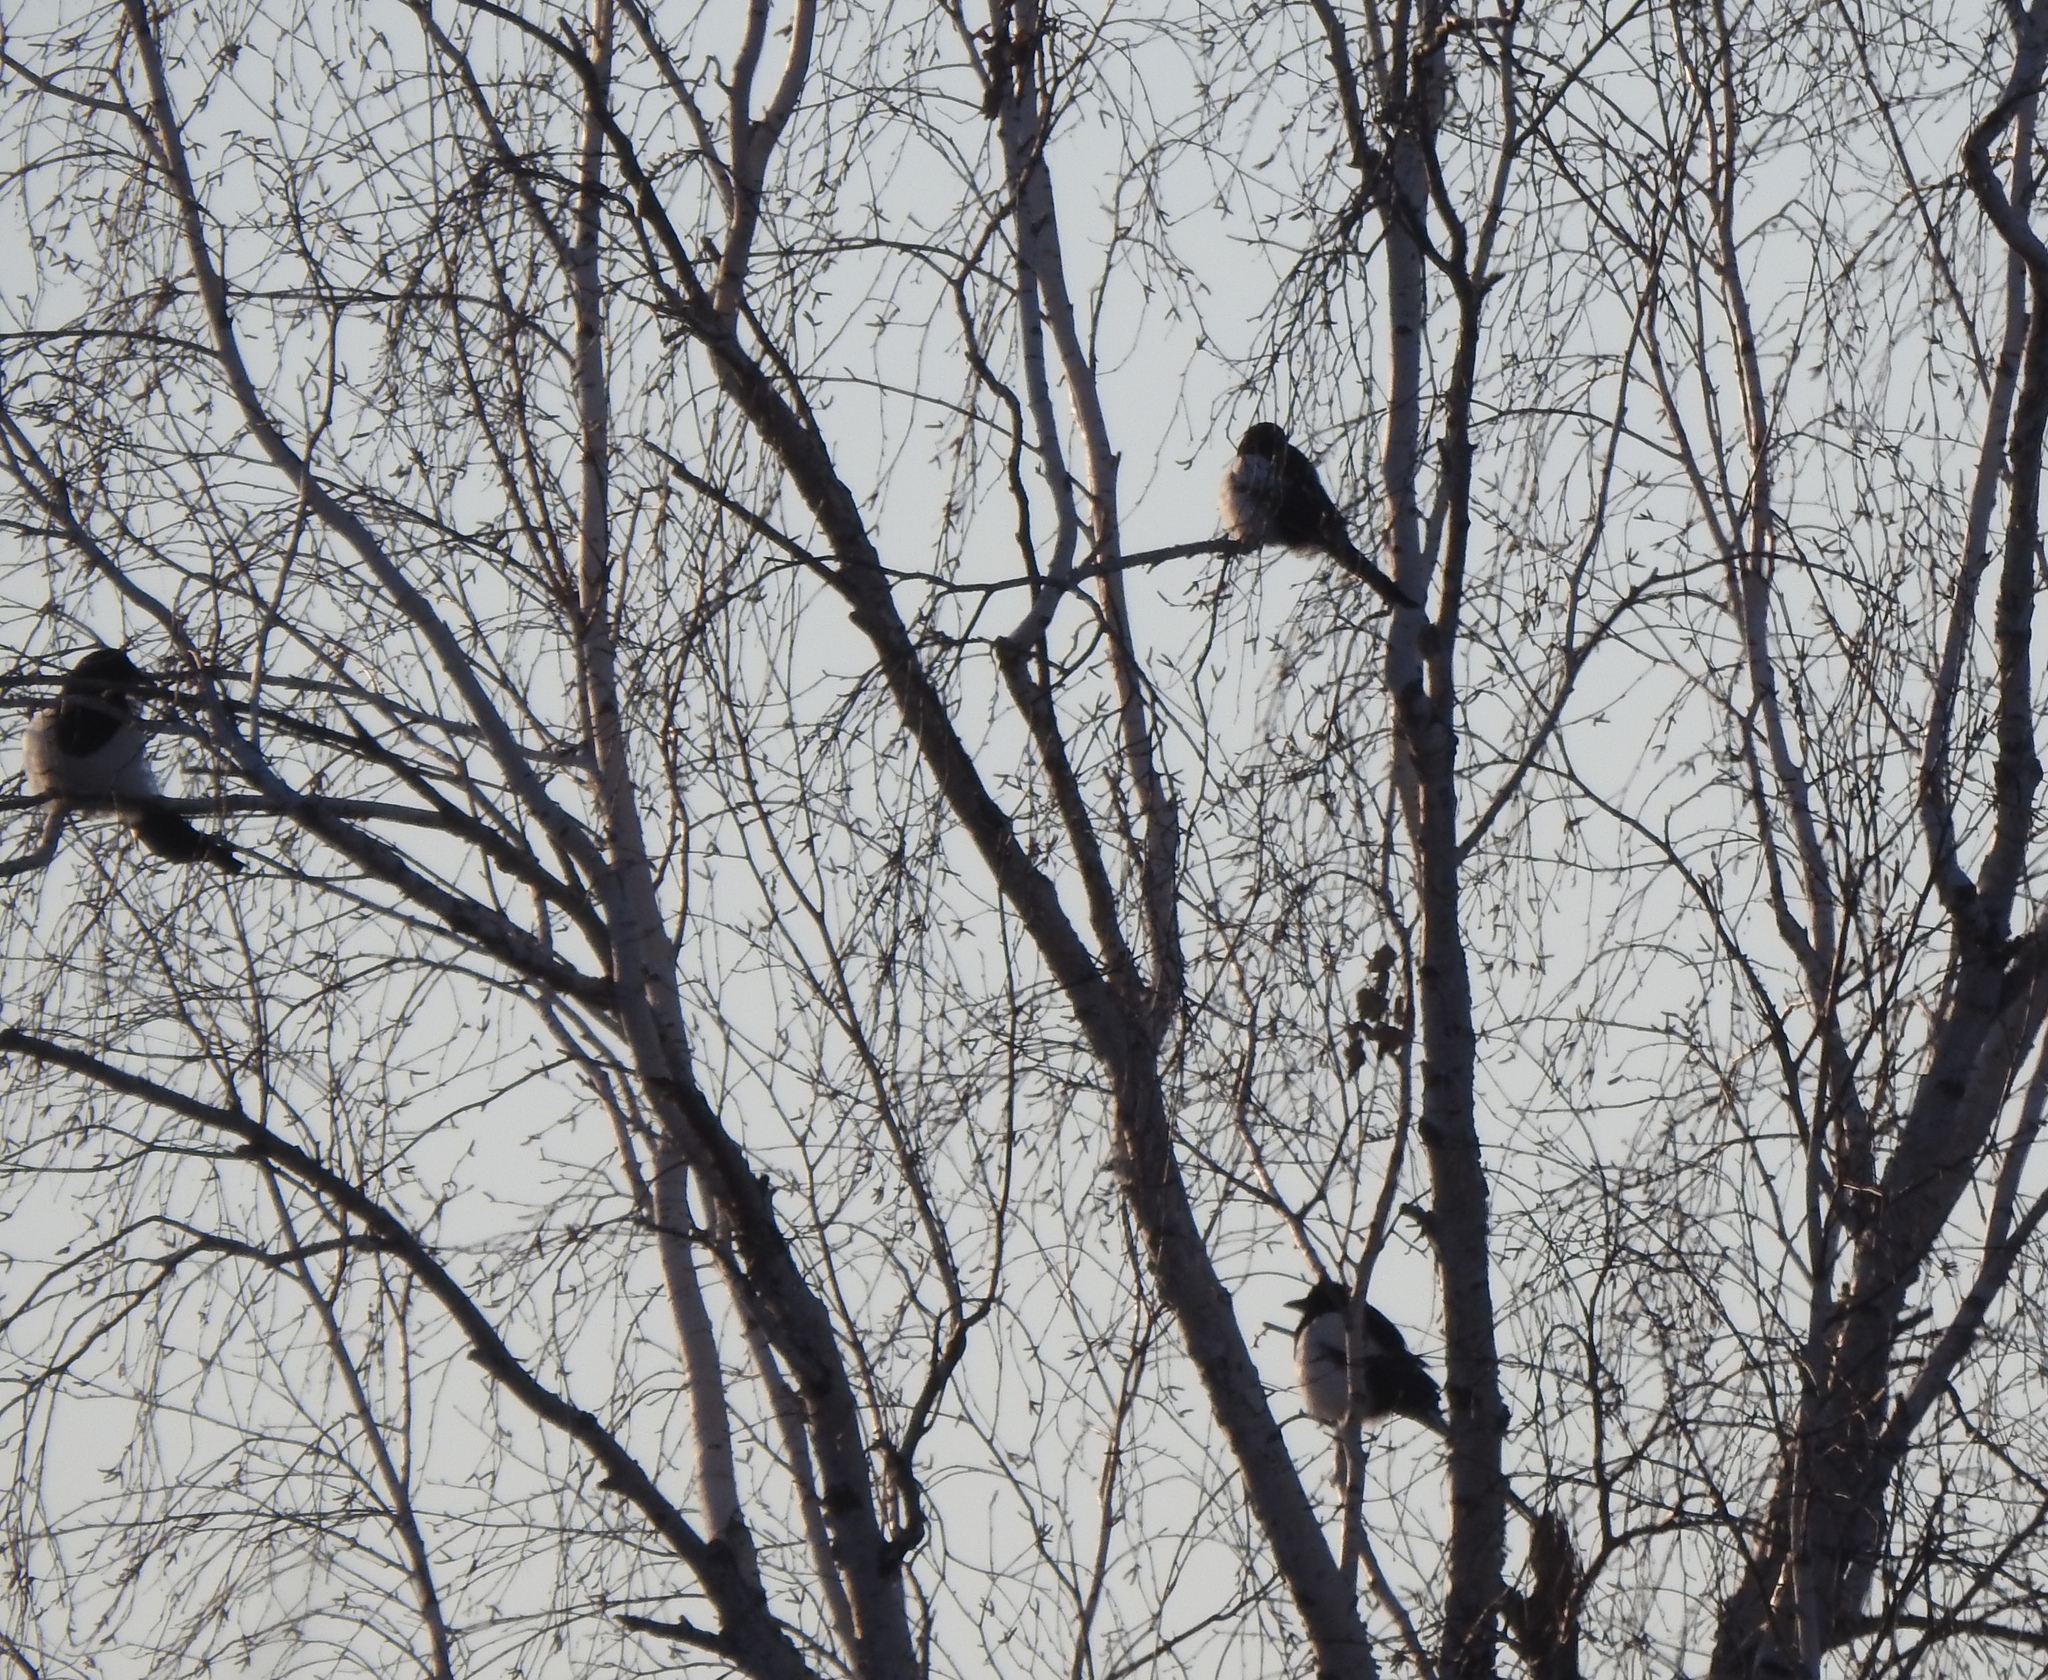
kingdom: Animalia
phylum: Chordata
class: Aves
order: Passeriformes
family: Corvidae
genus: Pica
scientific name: Pica pica
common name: Eurasian magpie
